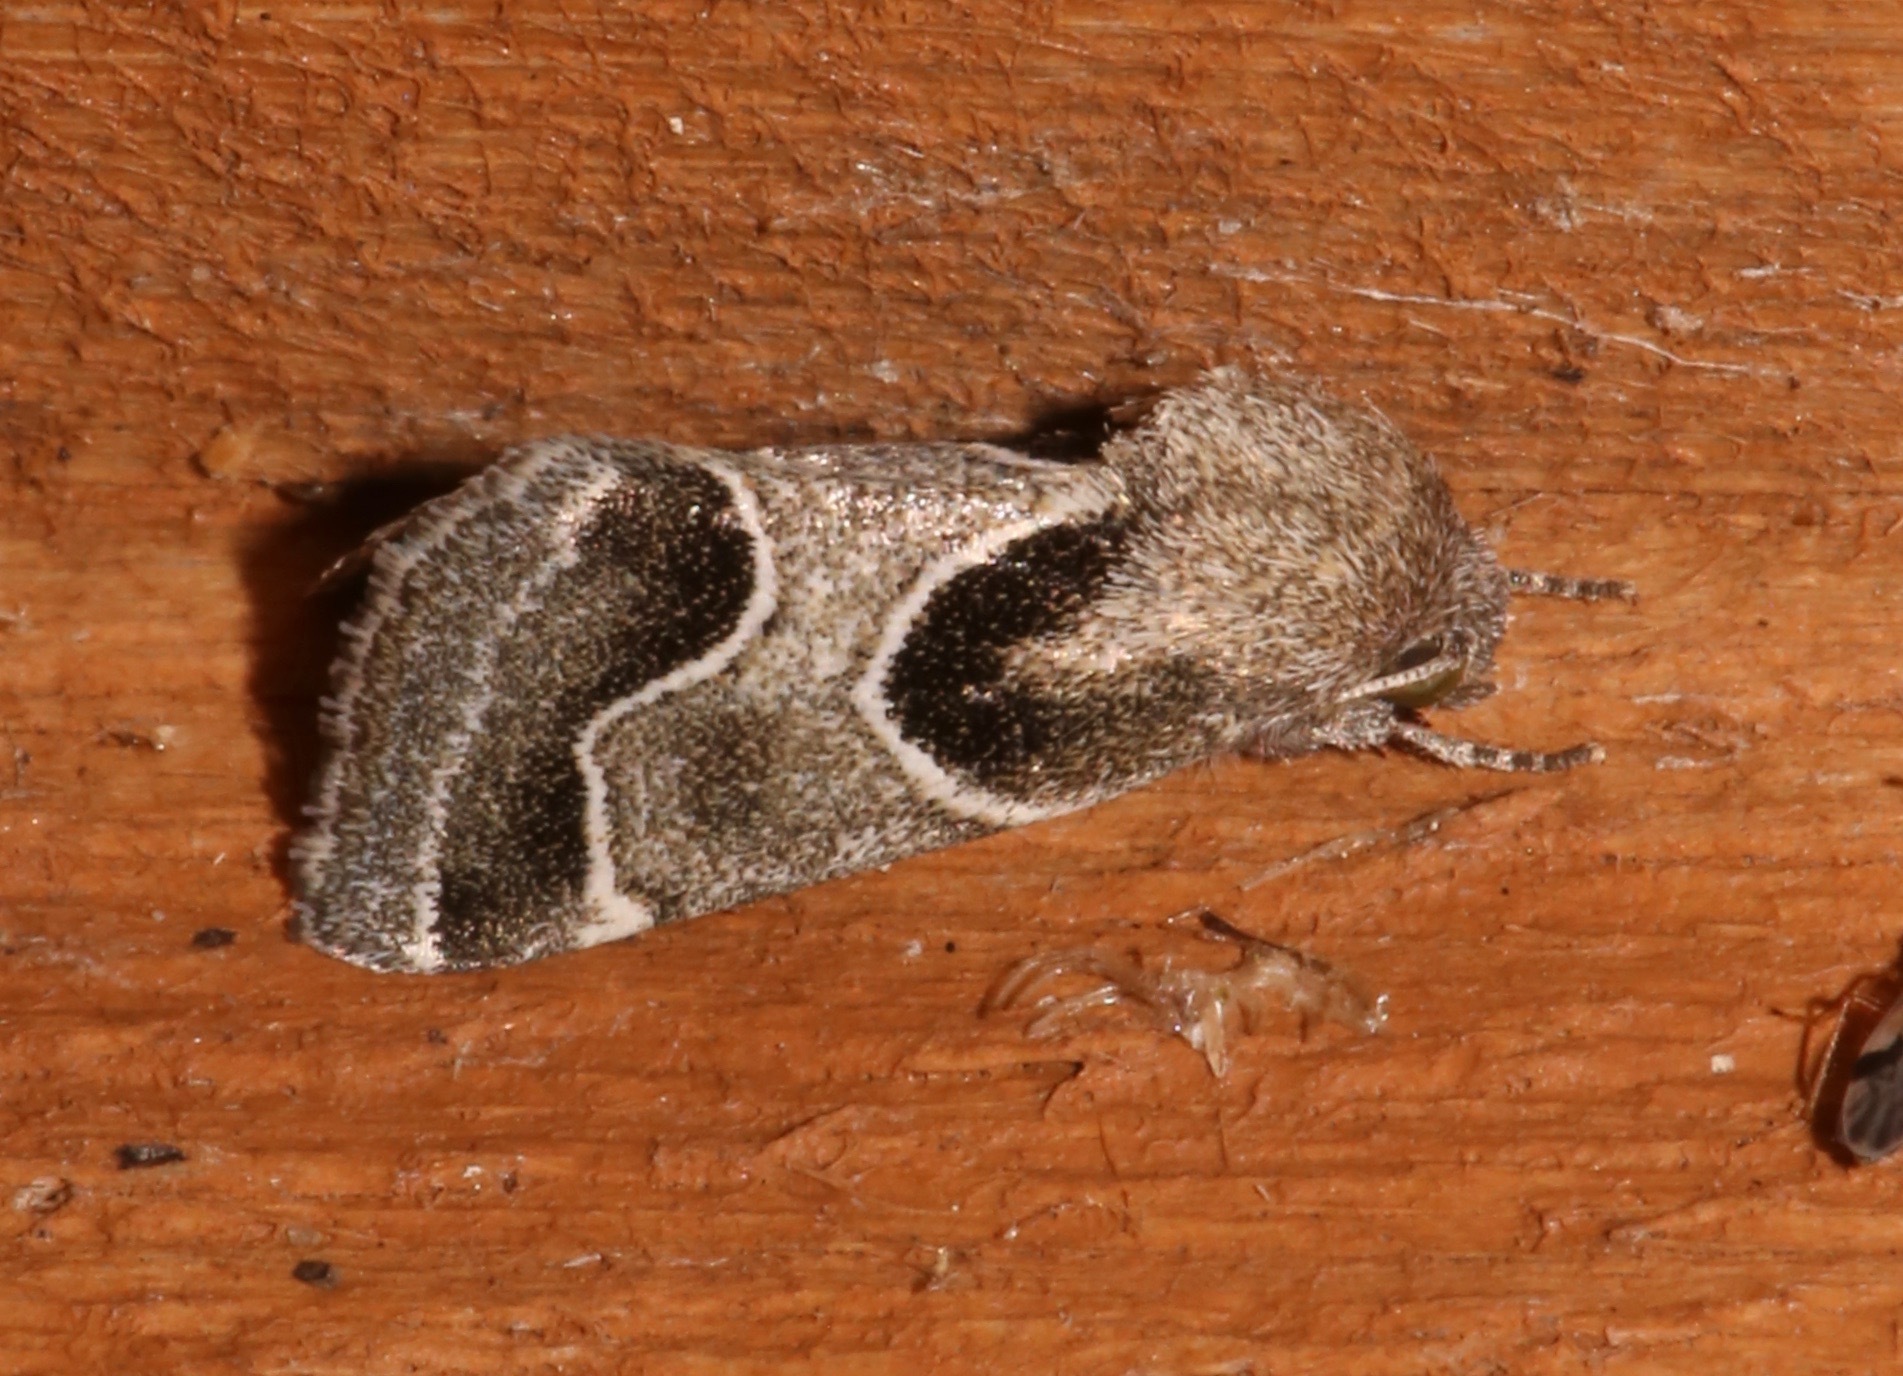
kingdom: Animalia
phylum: Arthropoda
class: Insecta
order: Lepidoptera
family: Noctuidae
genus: Schinia
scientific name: Schinia rivulosa
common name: Scarce meal-moth
